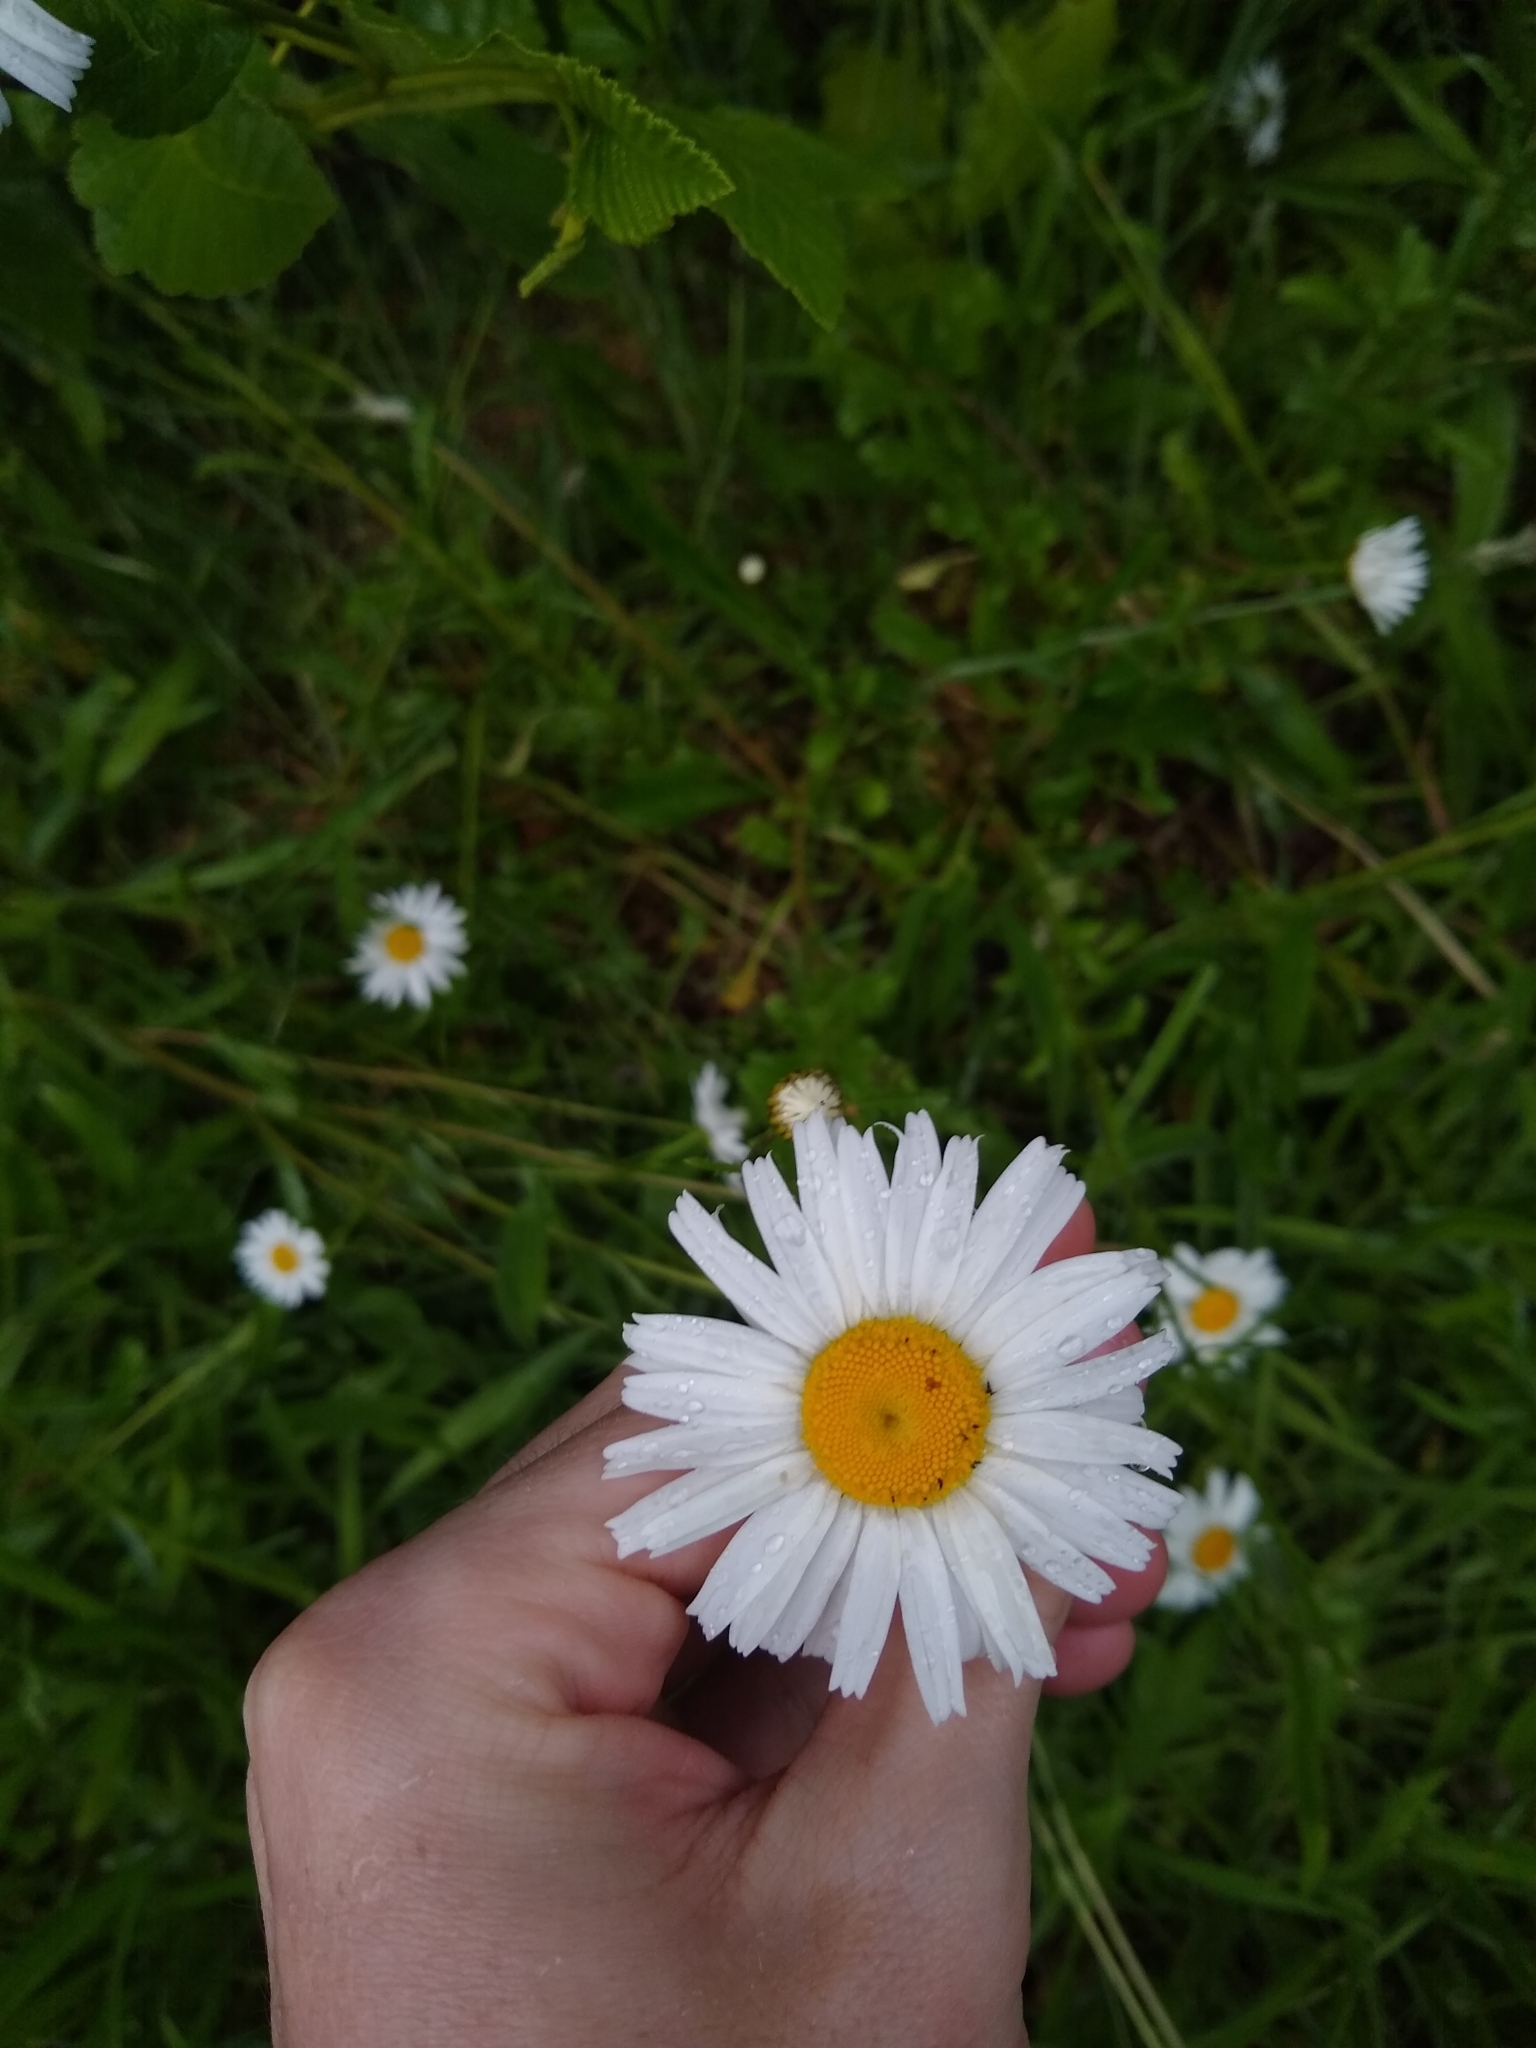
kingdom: Plantae
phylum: Tracheophyta
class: Magnoliopsida
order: Asterales
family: Asteraceae
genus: Leucanthemum
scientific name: Leucanthemum vulgare
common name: Oxeye daisy
